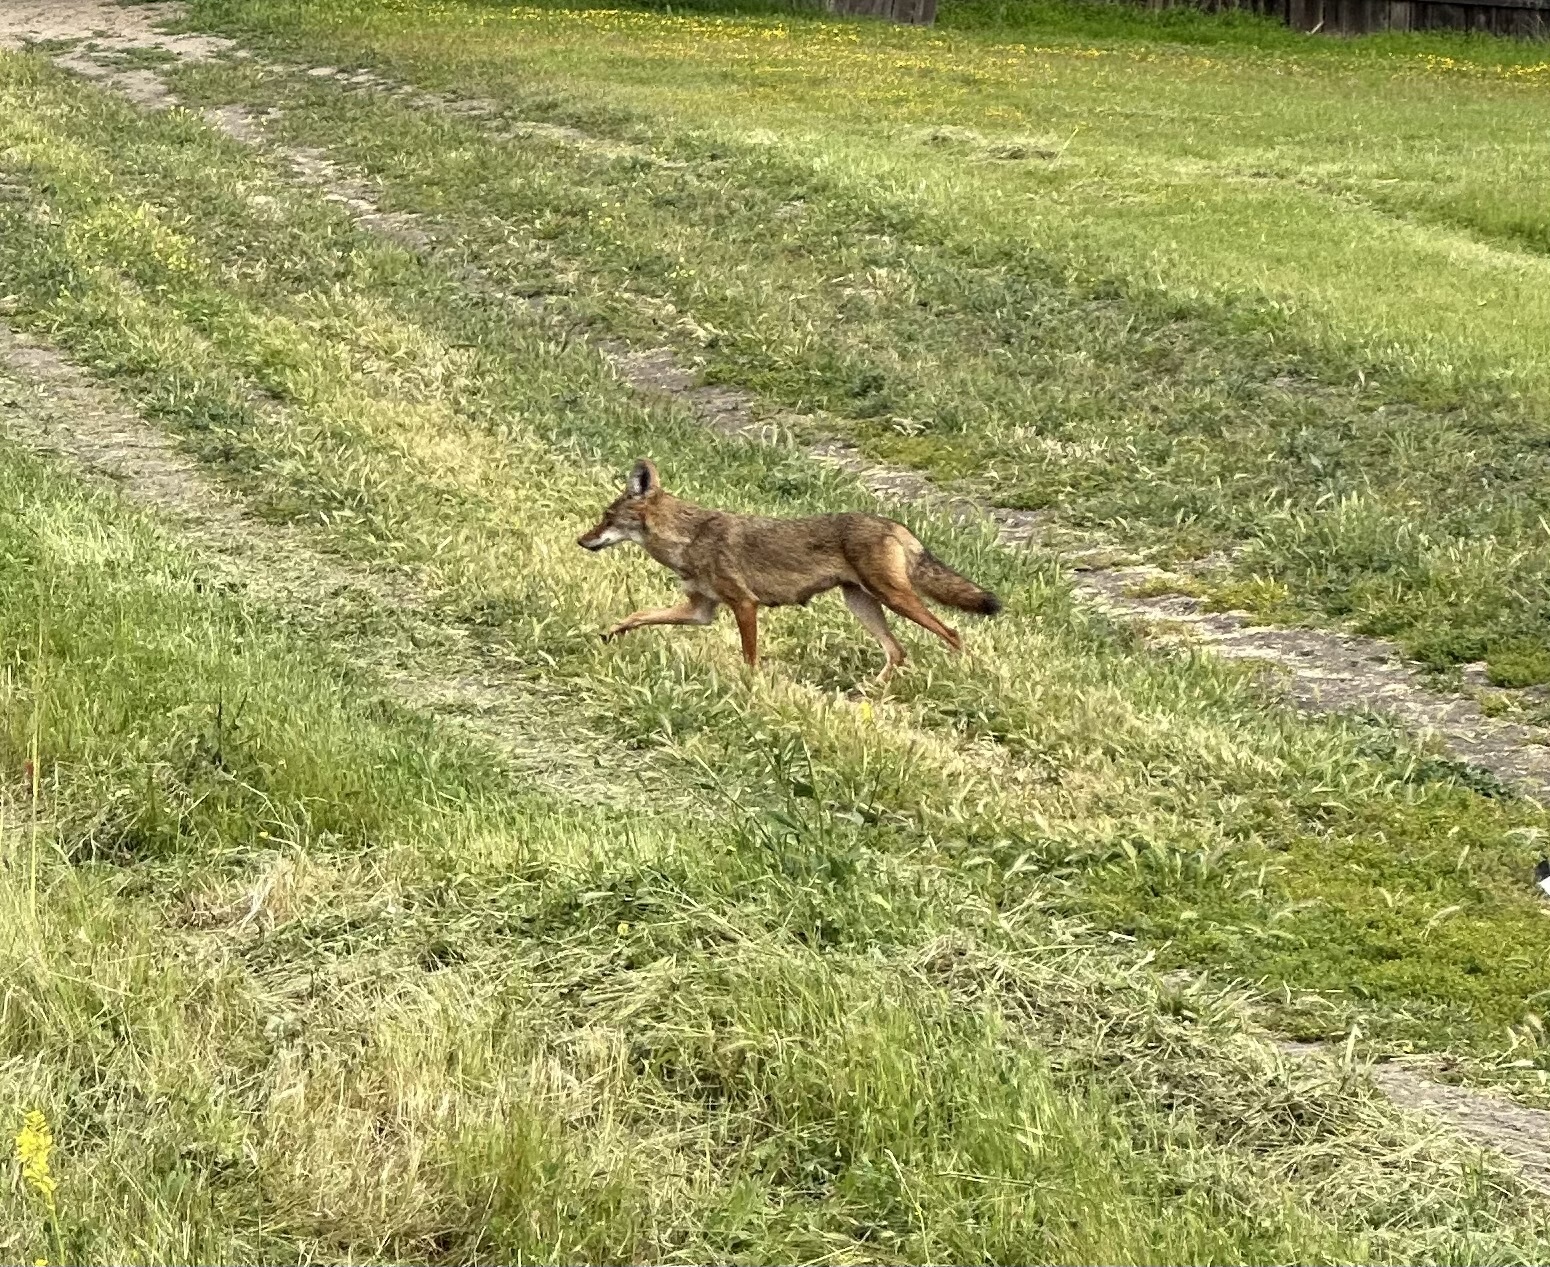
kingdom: Animalia
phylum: Chordata
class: Mammalia
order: Carnivora
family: Canidae
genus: Canis
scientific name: Canis latrans
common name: Coyote
